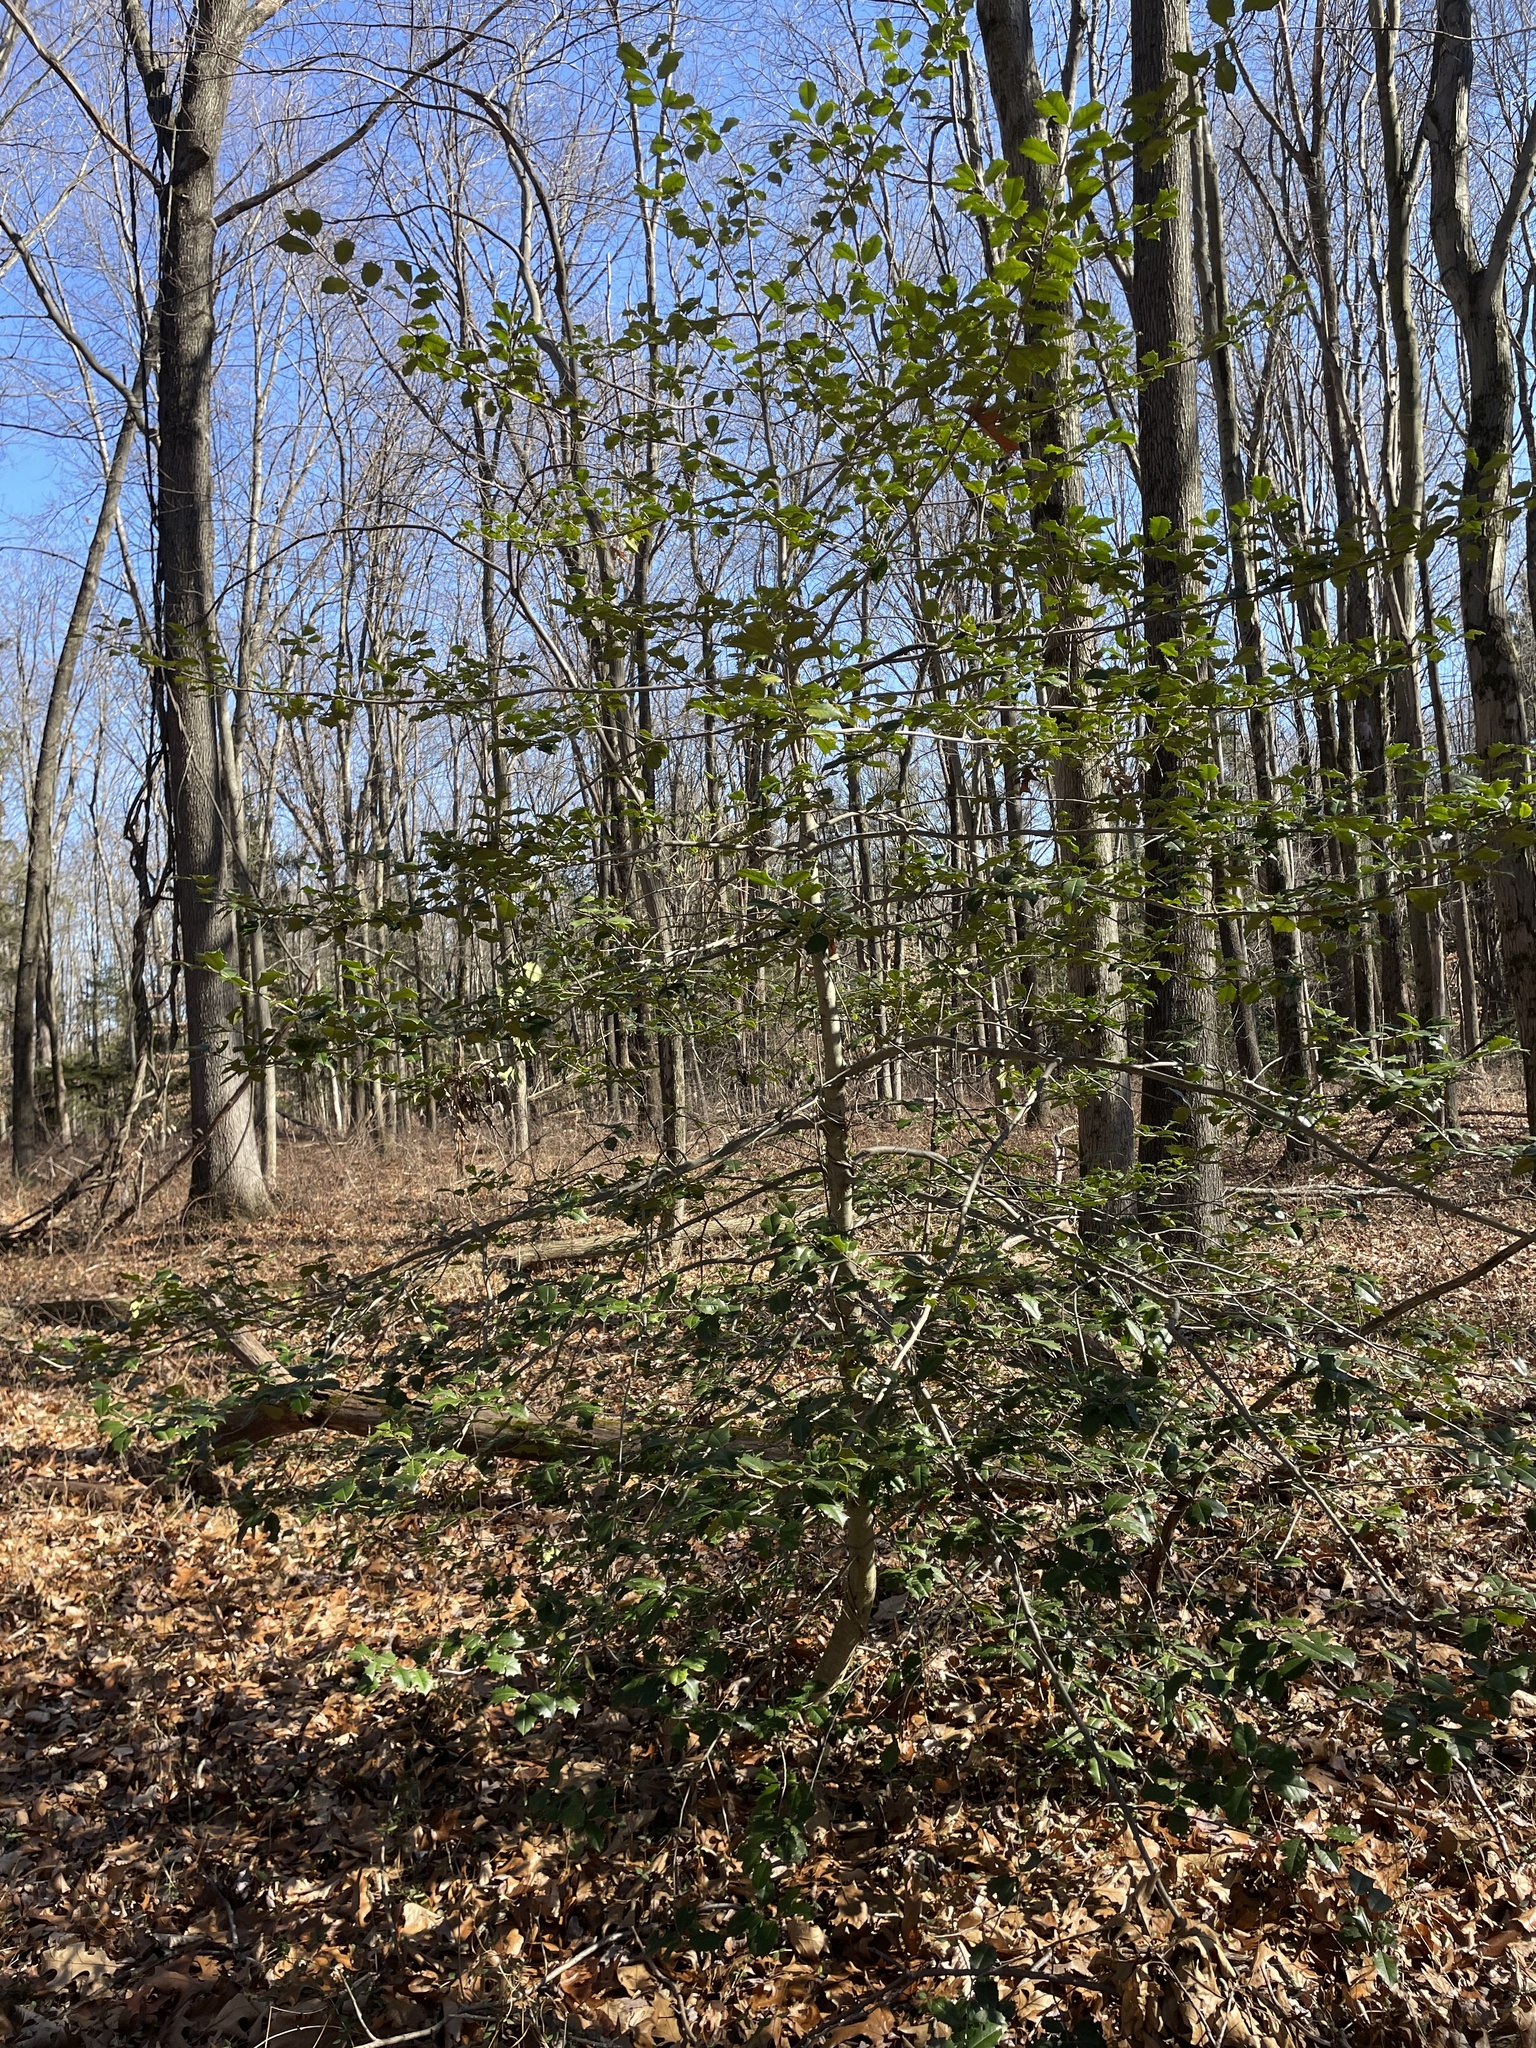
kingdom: Plantae
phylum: Tracheophyta
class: Magnoliopsida
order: Aquifoliales
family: Aquifoliaceae
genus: Ilex
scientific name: Ilex opaca
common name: American holly
